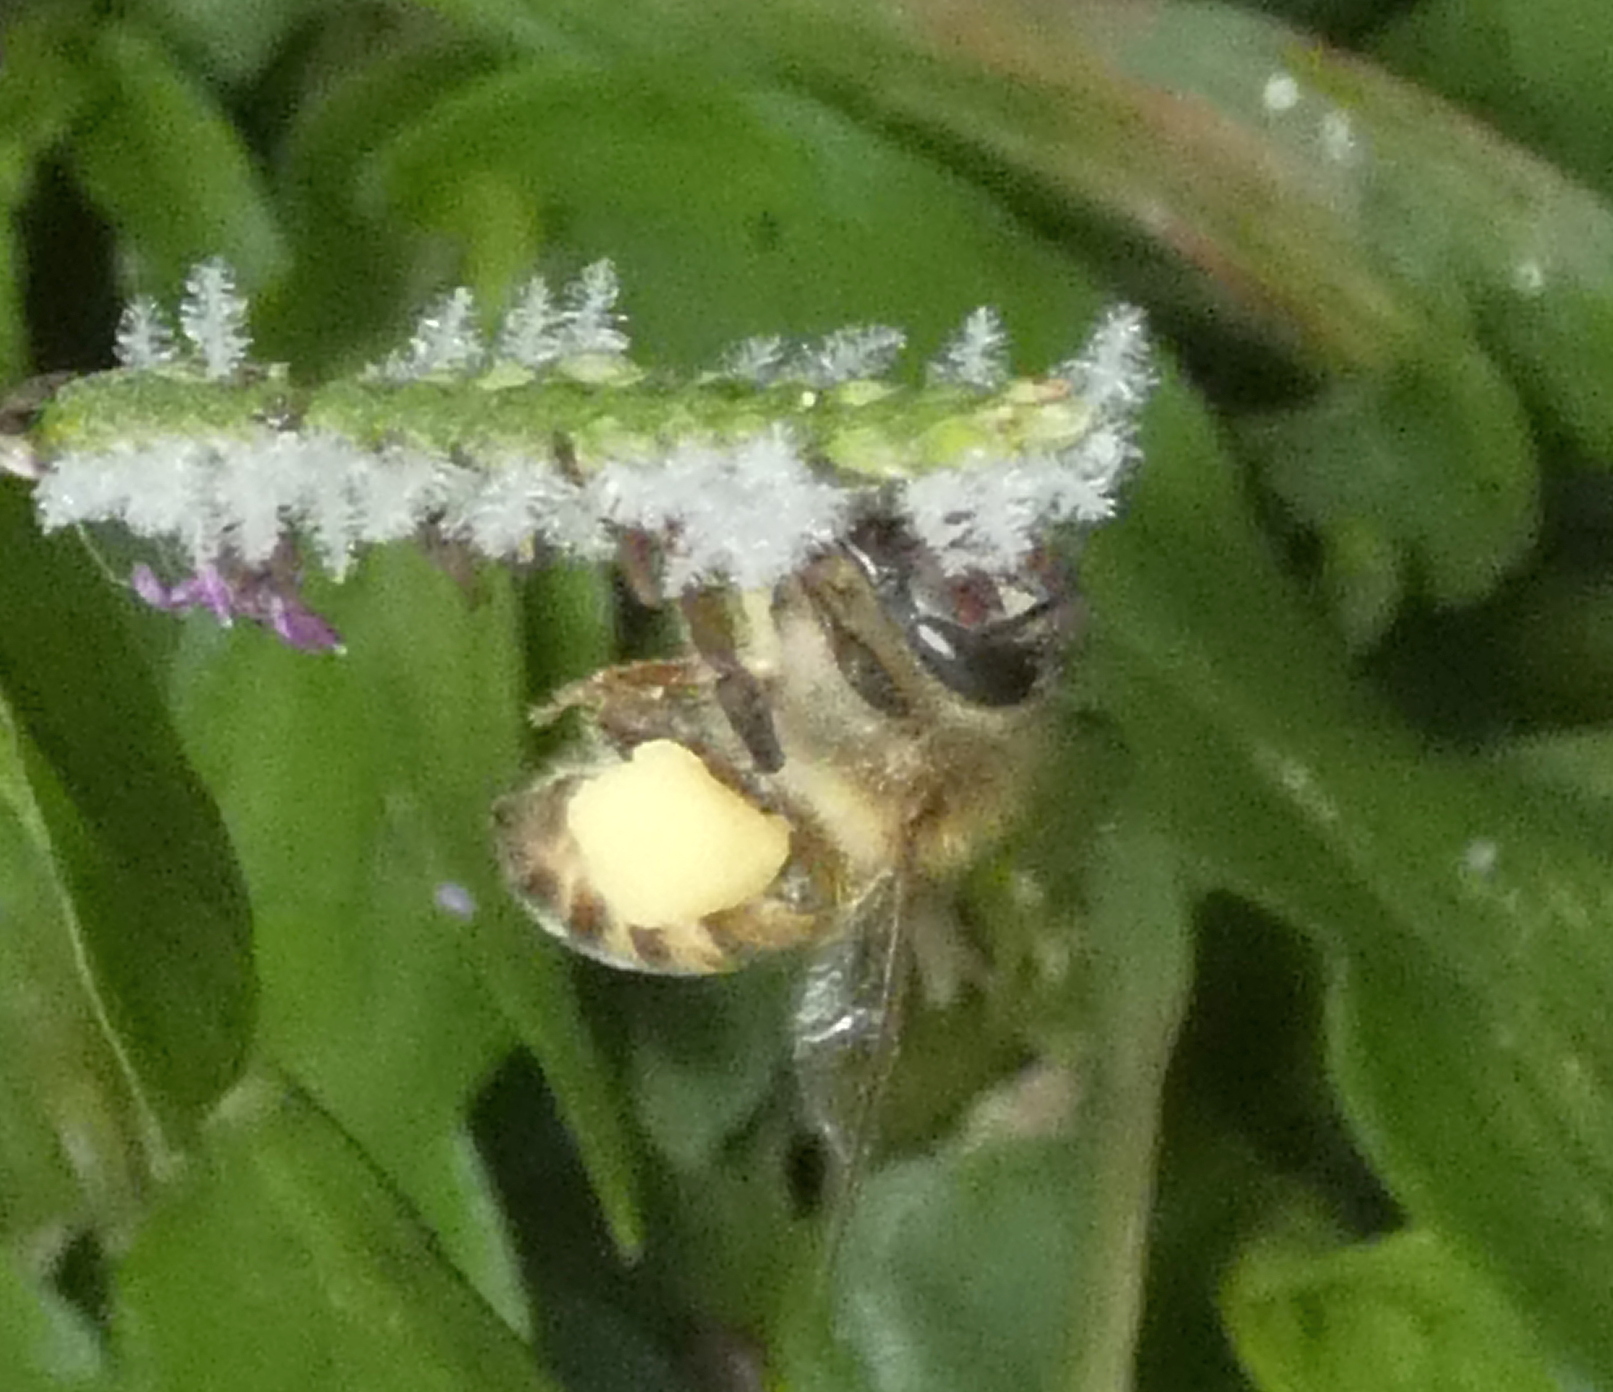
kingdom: Animalia
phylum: Arthropoda
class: Insecta
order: Hymenoptera
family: Apidae
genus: Apis
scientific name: Apis mellifera
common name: Honey bee
